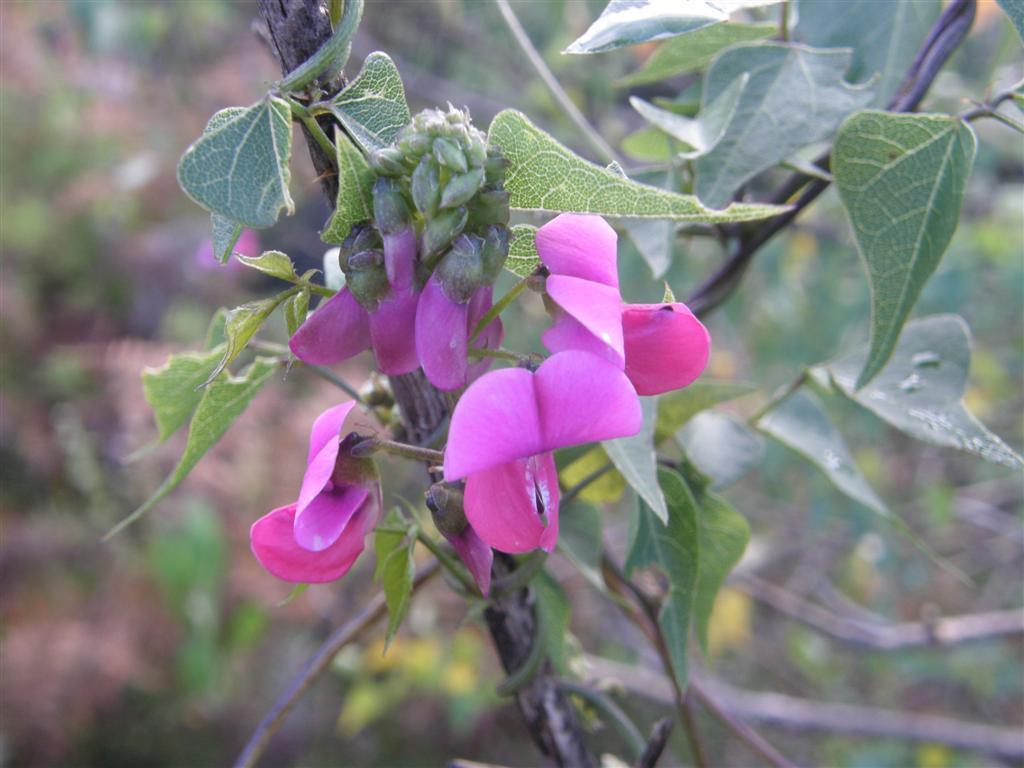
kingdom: Plantae
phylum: Tracheophyta
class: Magnoliopsida
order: Fabales
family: Fabaceae
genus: Dipogon
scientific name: Dipogon lignosus
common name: Okie bean
